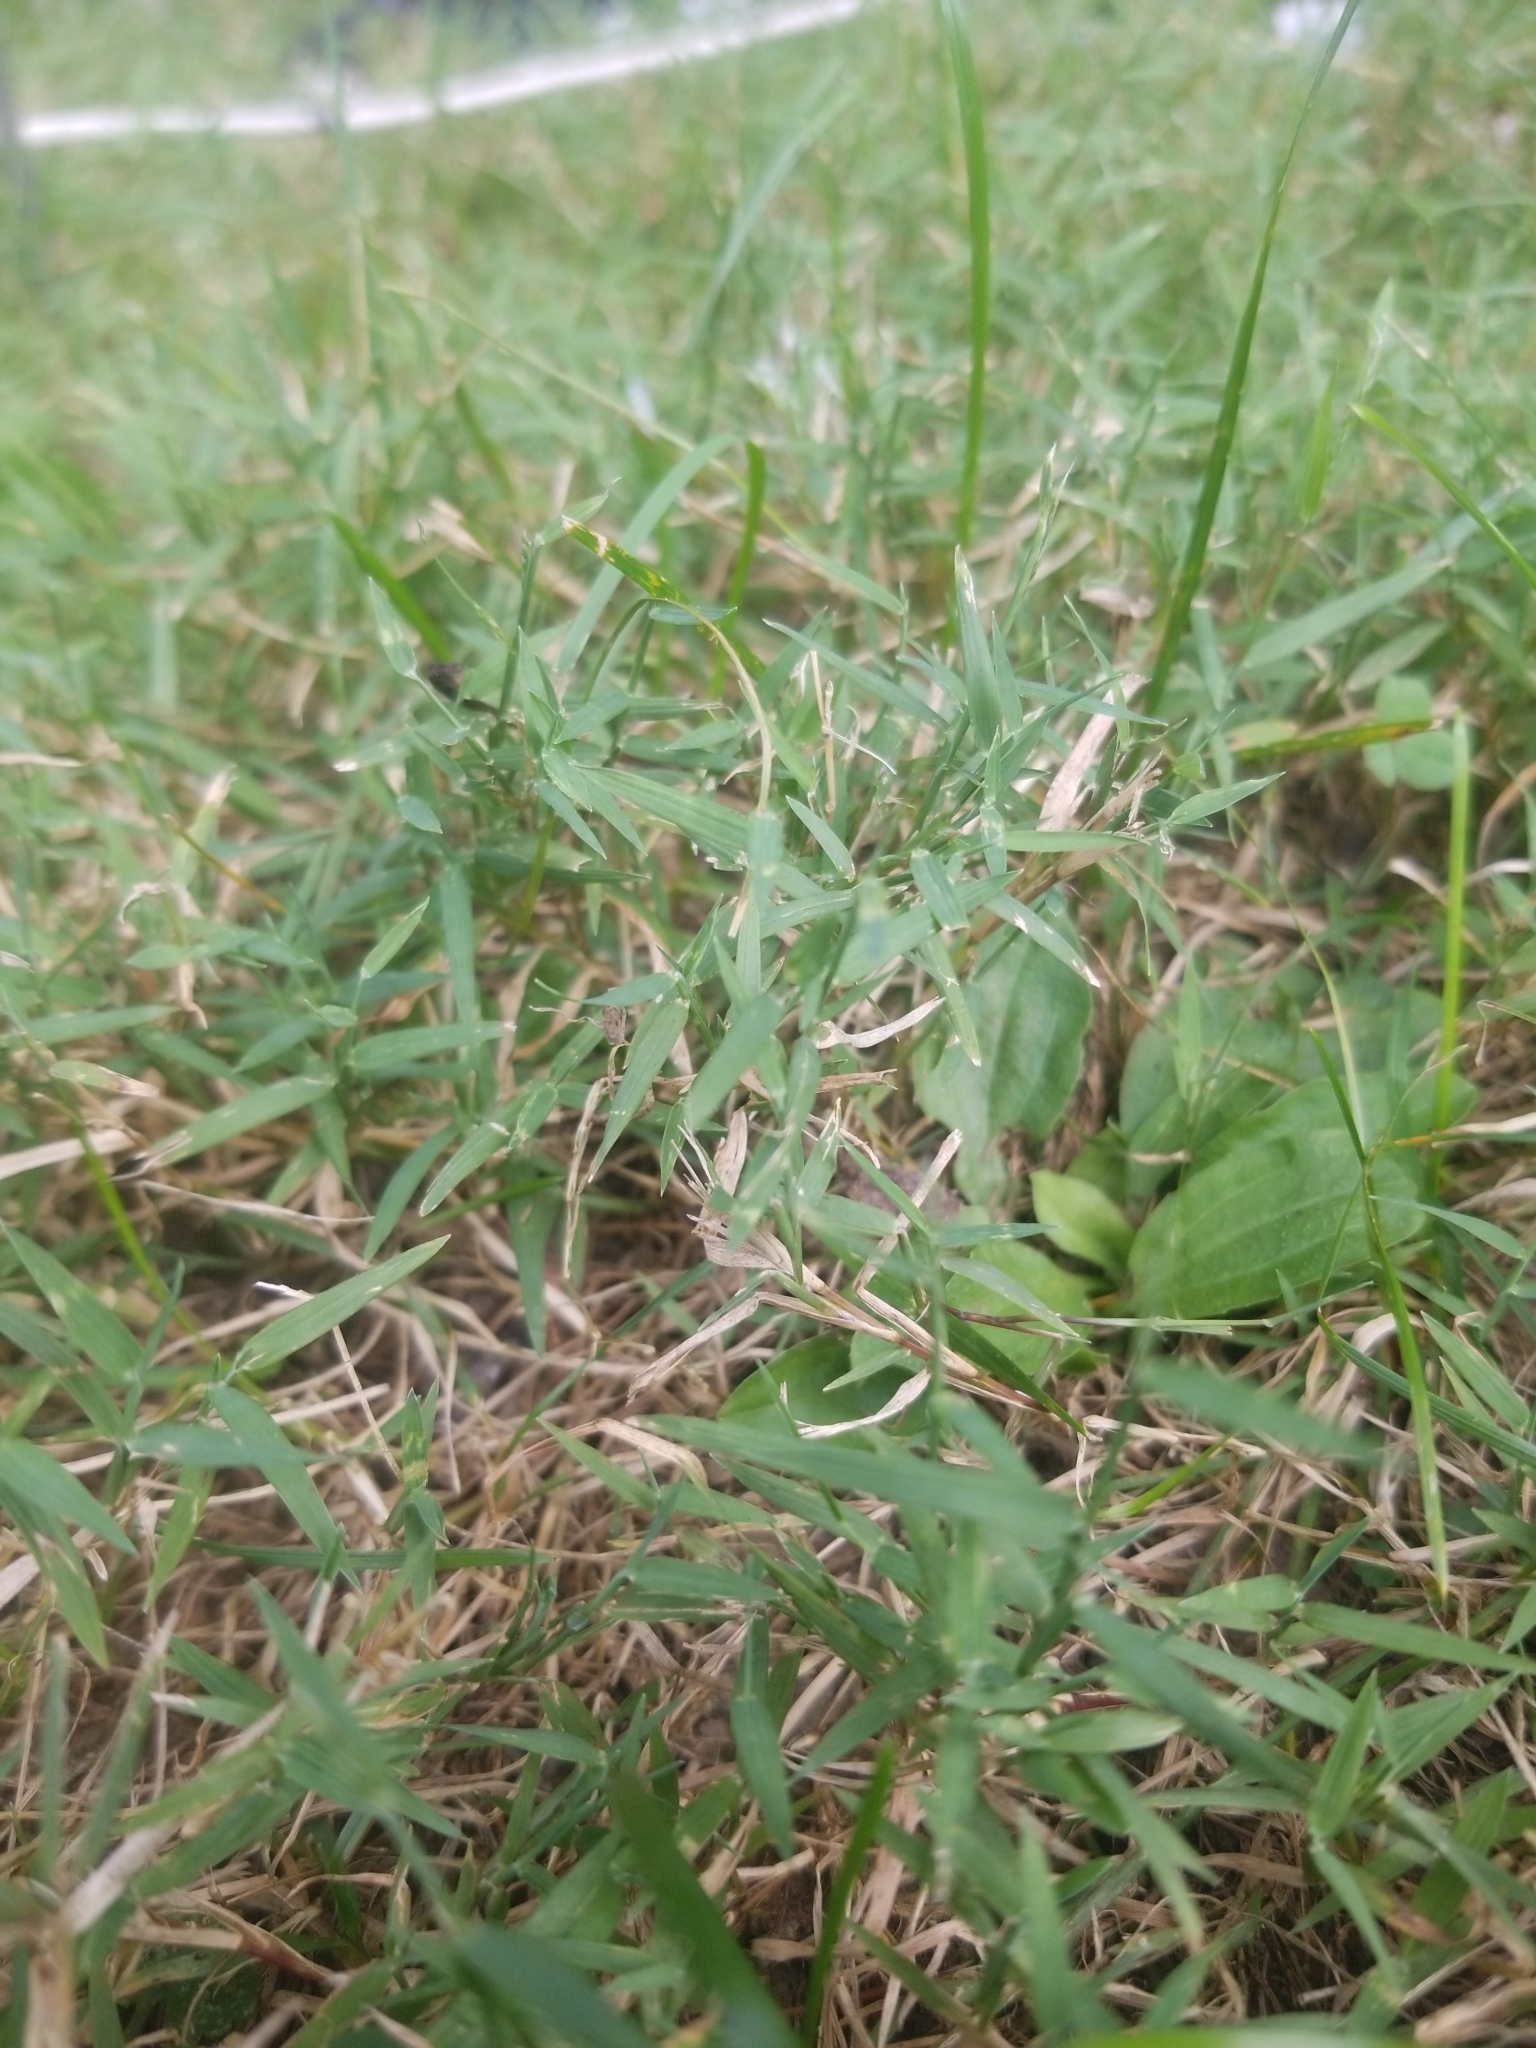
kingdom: Plantae
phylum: Tracheophyta
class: Liliopsida
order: Poales
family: Poaceae
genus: Muhlenbergia
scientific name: Muhlenbergia schreberi
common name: Nimblewill
